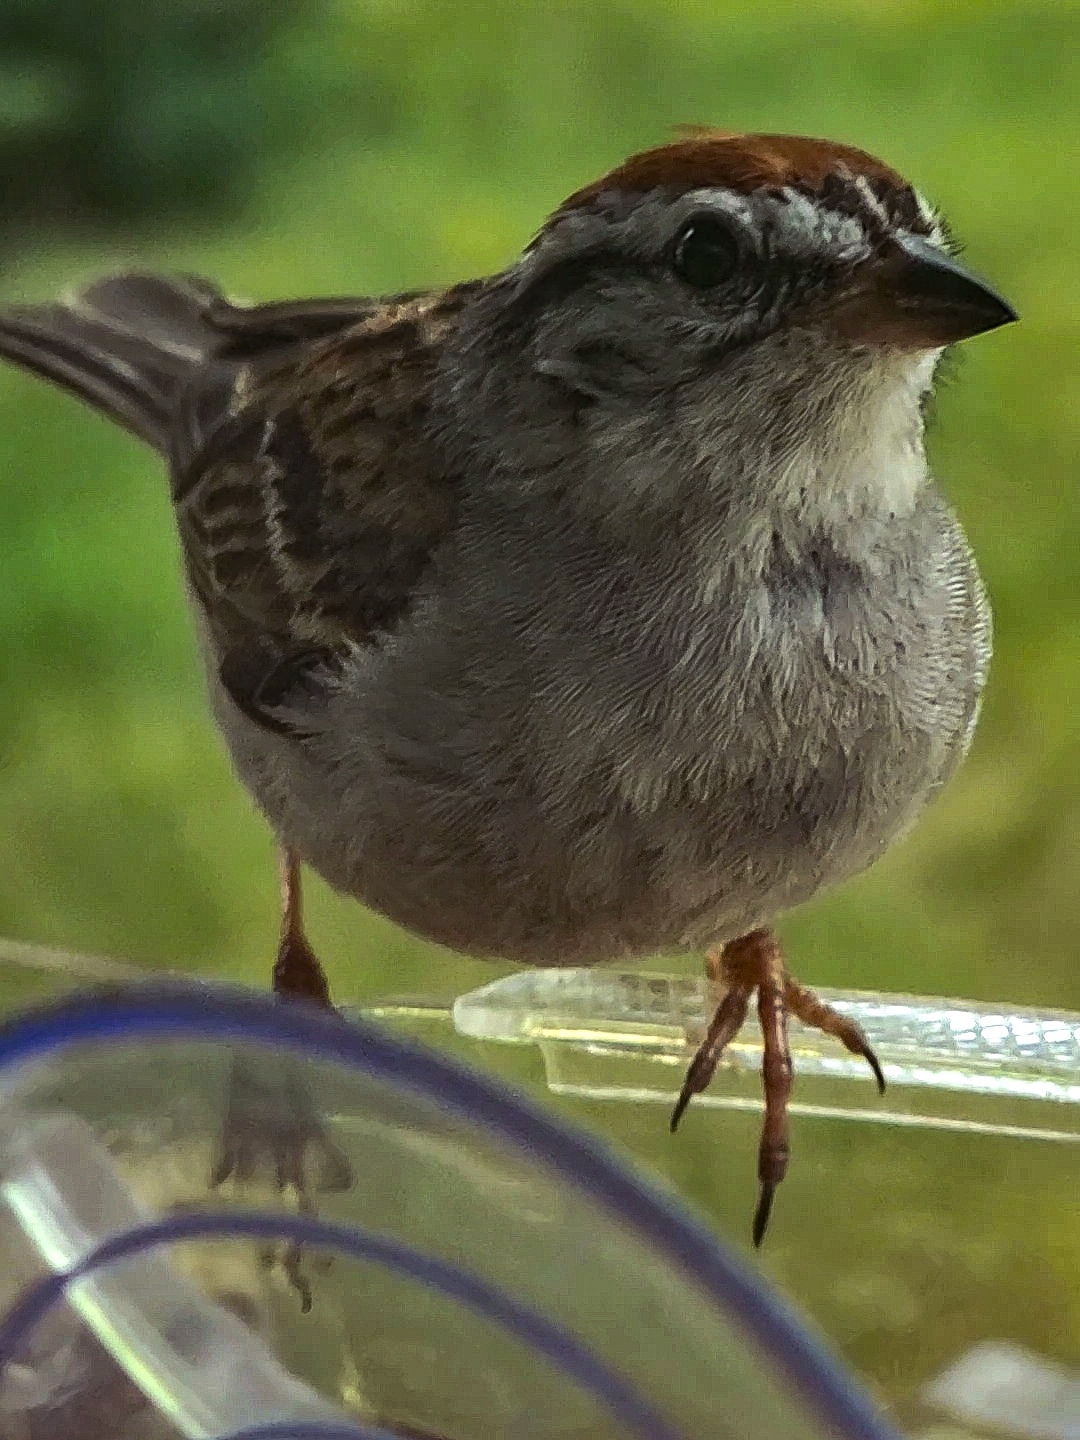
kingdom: Animalia
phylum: Chordata
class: Aves
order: Passeriformes
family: Passerellidae
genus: Spizella
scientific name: Spizella passerina
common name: Chipping sparrow
